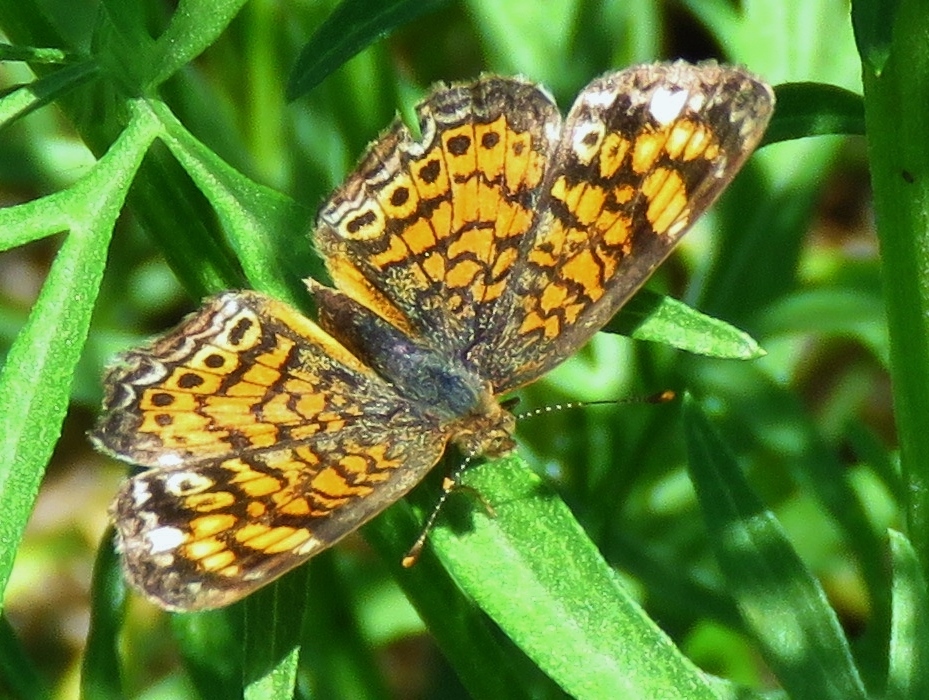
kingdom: Animalia
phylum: Arthropoda
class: Insecta
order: Lepidoptera
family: Nymphalidae
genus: Phyciodes
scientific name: Phyciodes tharos
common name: Pearl crescent
